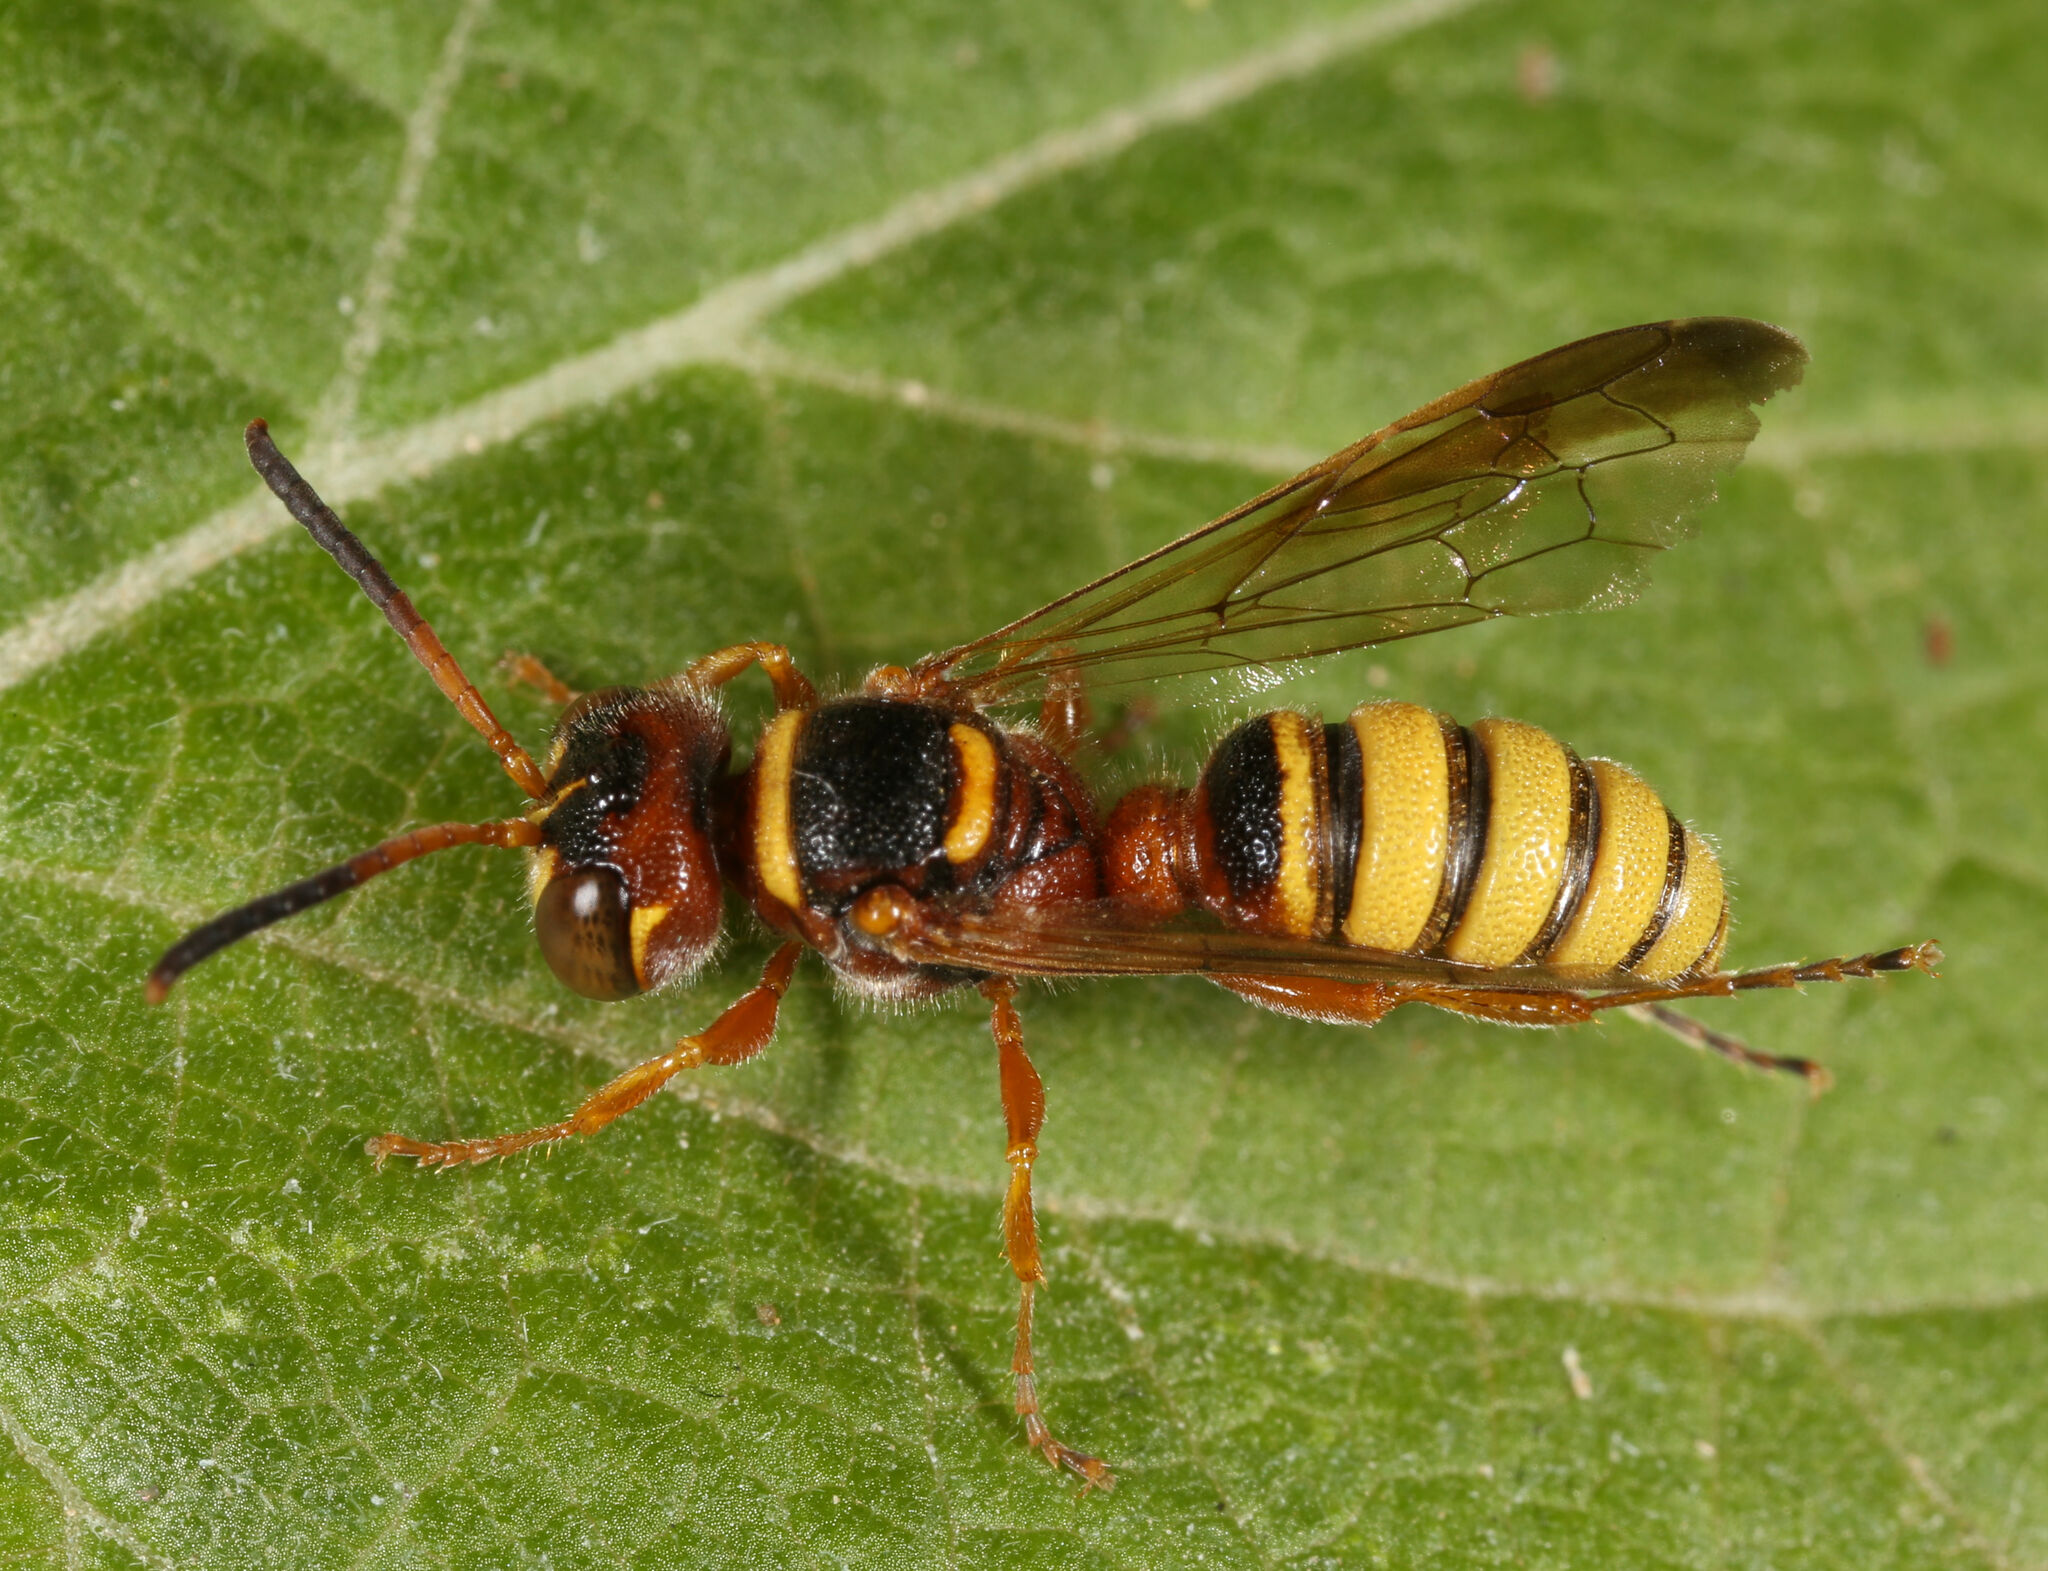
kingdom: Animalia
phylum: Arthropoda
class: Insecta
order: Hymenoptera
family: Crabronidae
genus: Cerceris
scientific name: Cerceris californica
